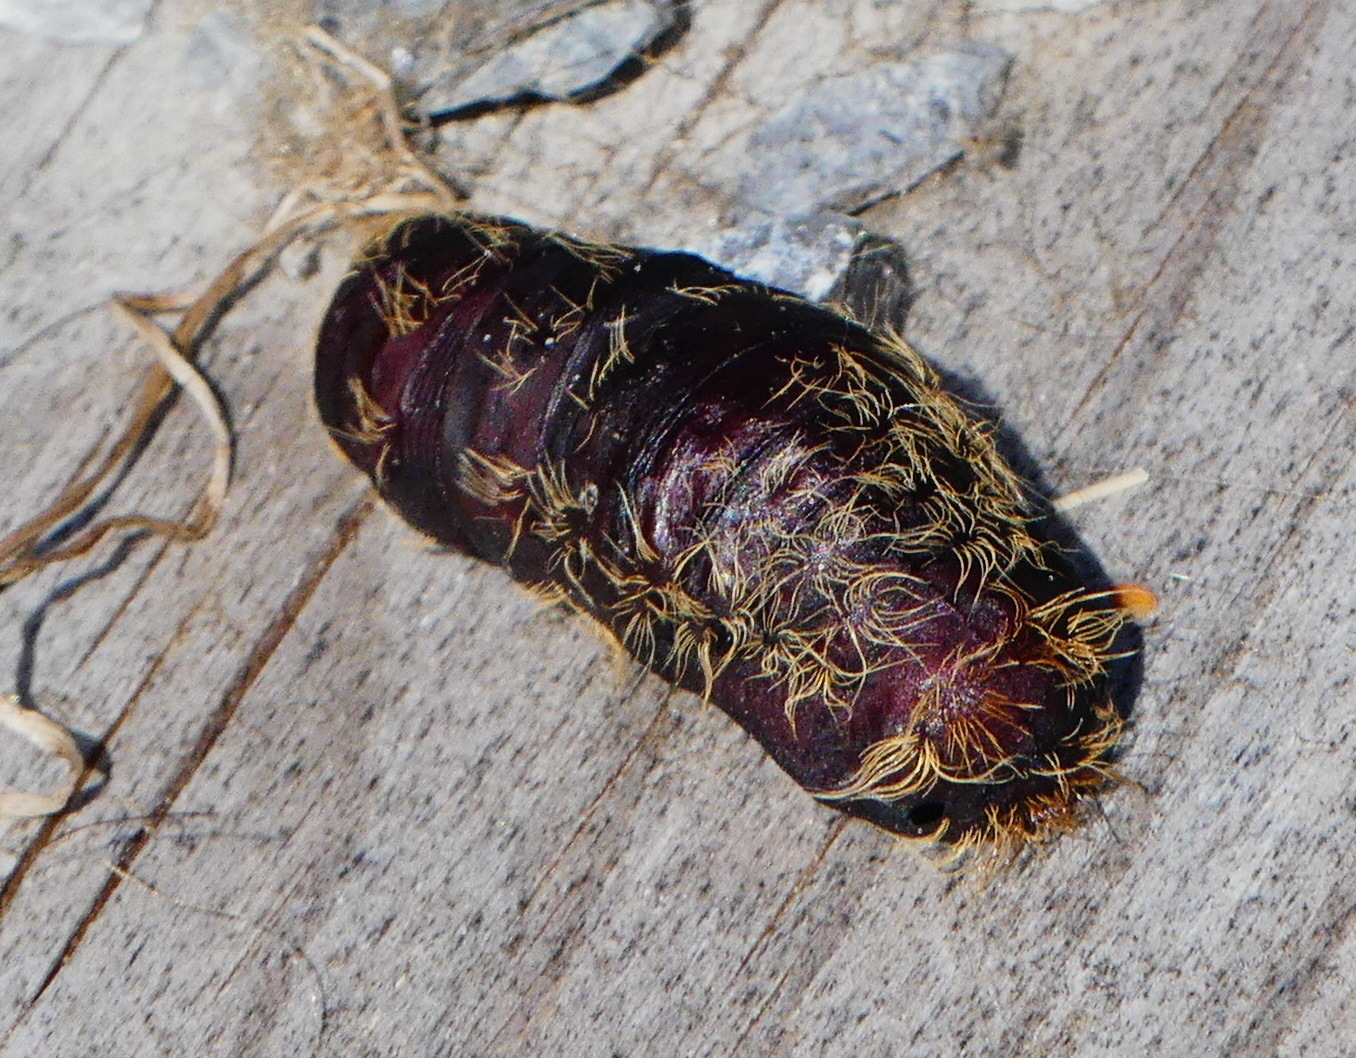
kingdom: Animalia
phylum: Arthropoda
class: Insecta
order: Lepidoptera
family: Erebidae
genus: Lymantria
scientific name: Lymantria dispar
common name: Gypsy moth
